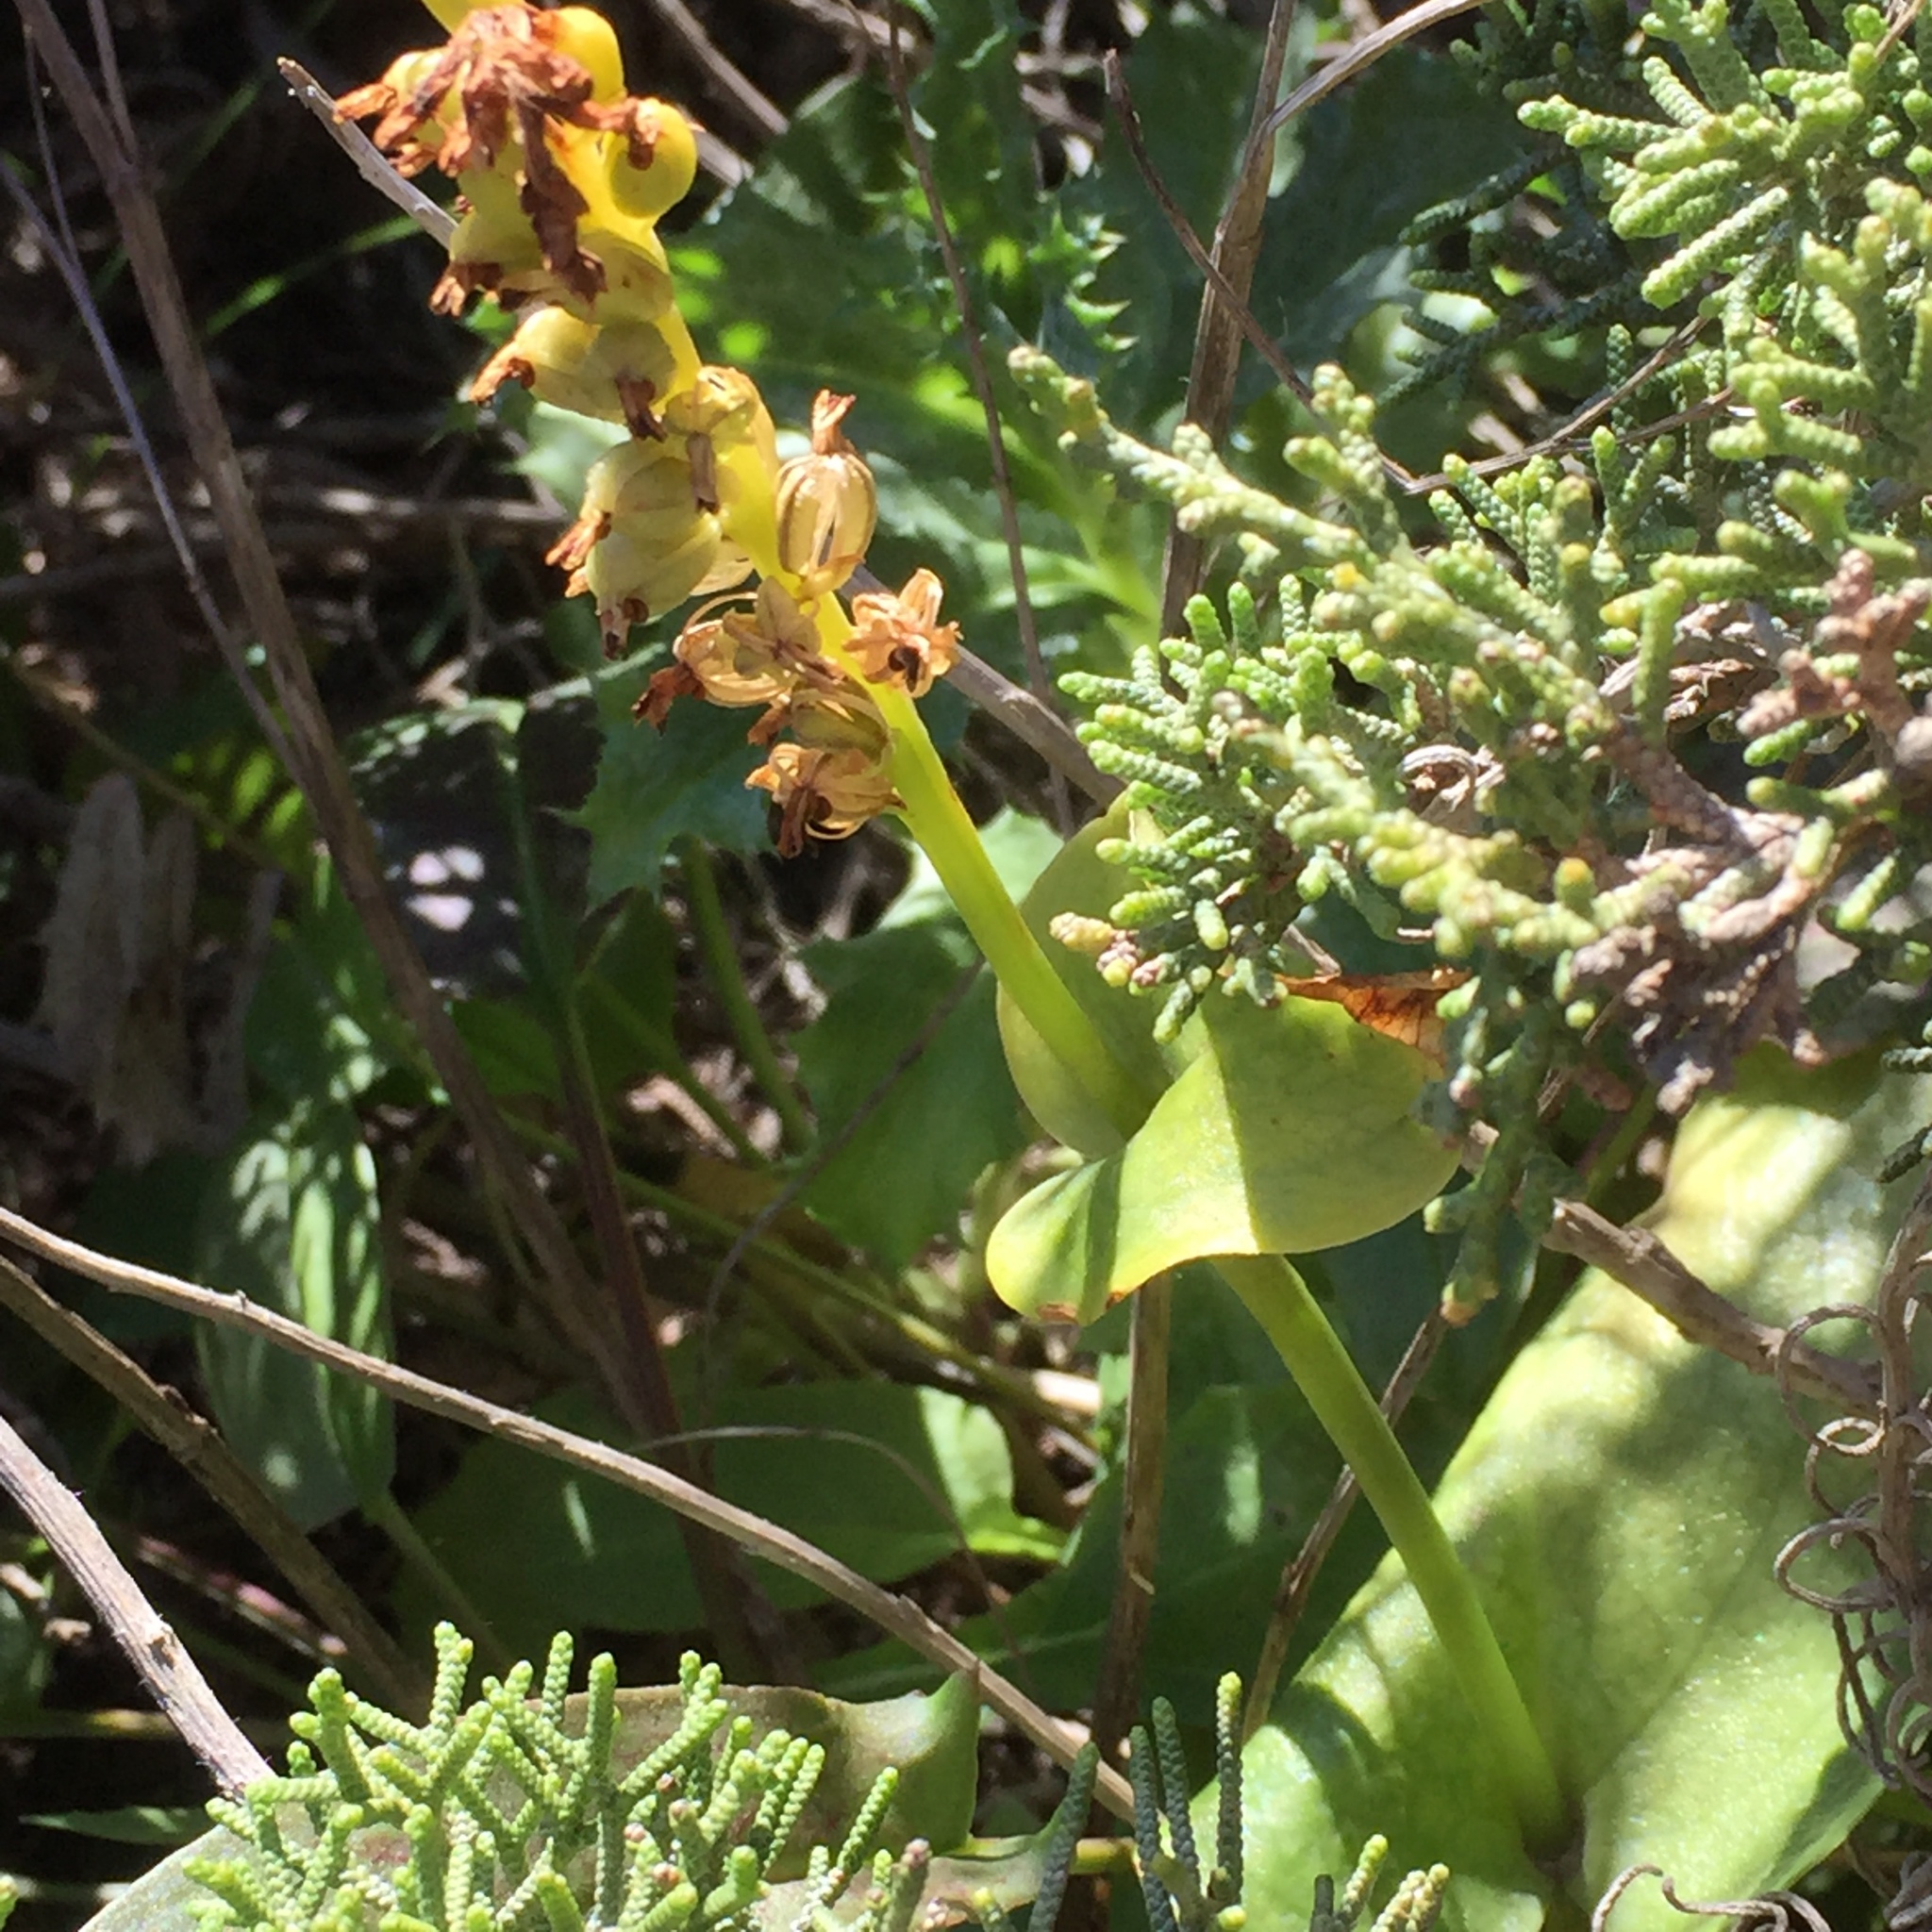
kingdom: Plantae
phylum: Tracheophyta
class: Liliopsida
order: Asparagales
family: Orchidaceae
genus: Gennaria
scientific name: Gennaria diphylla
